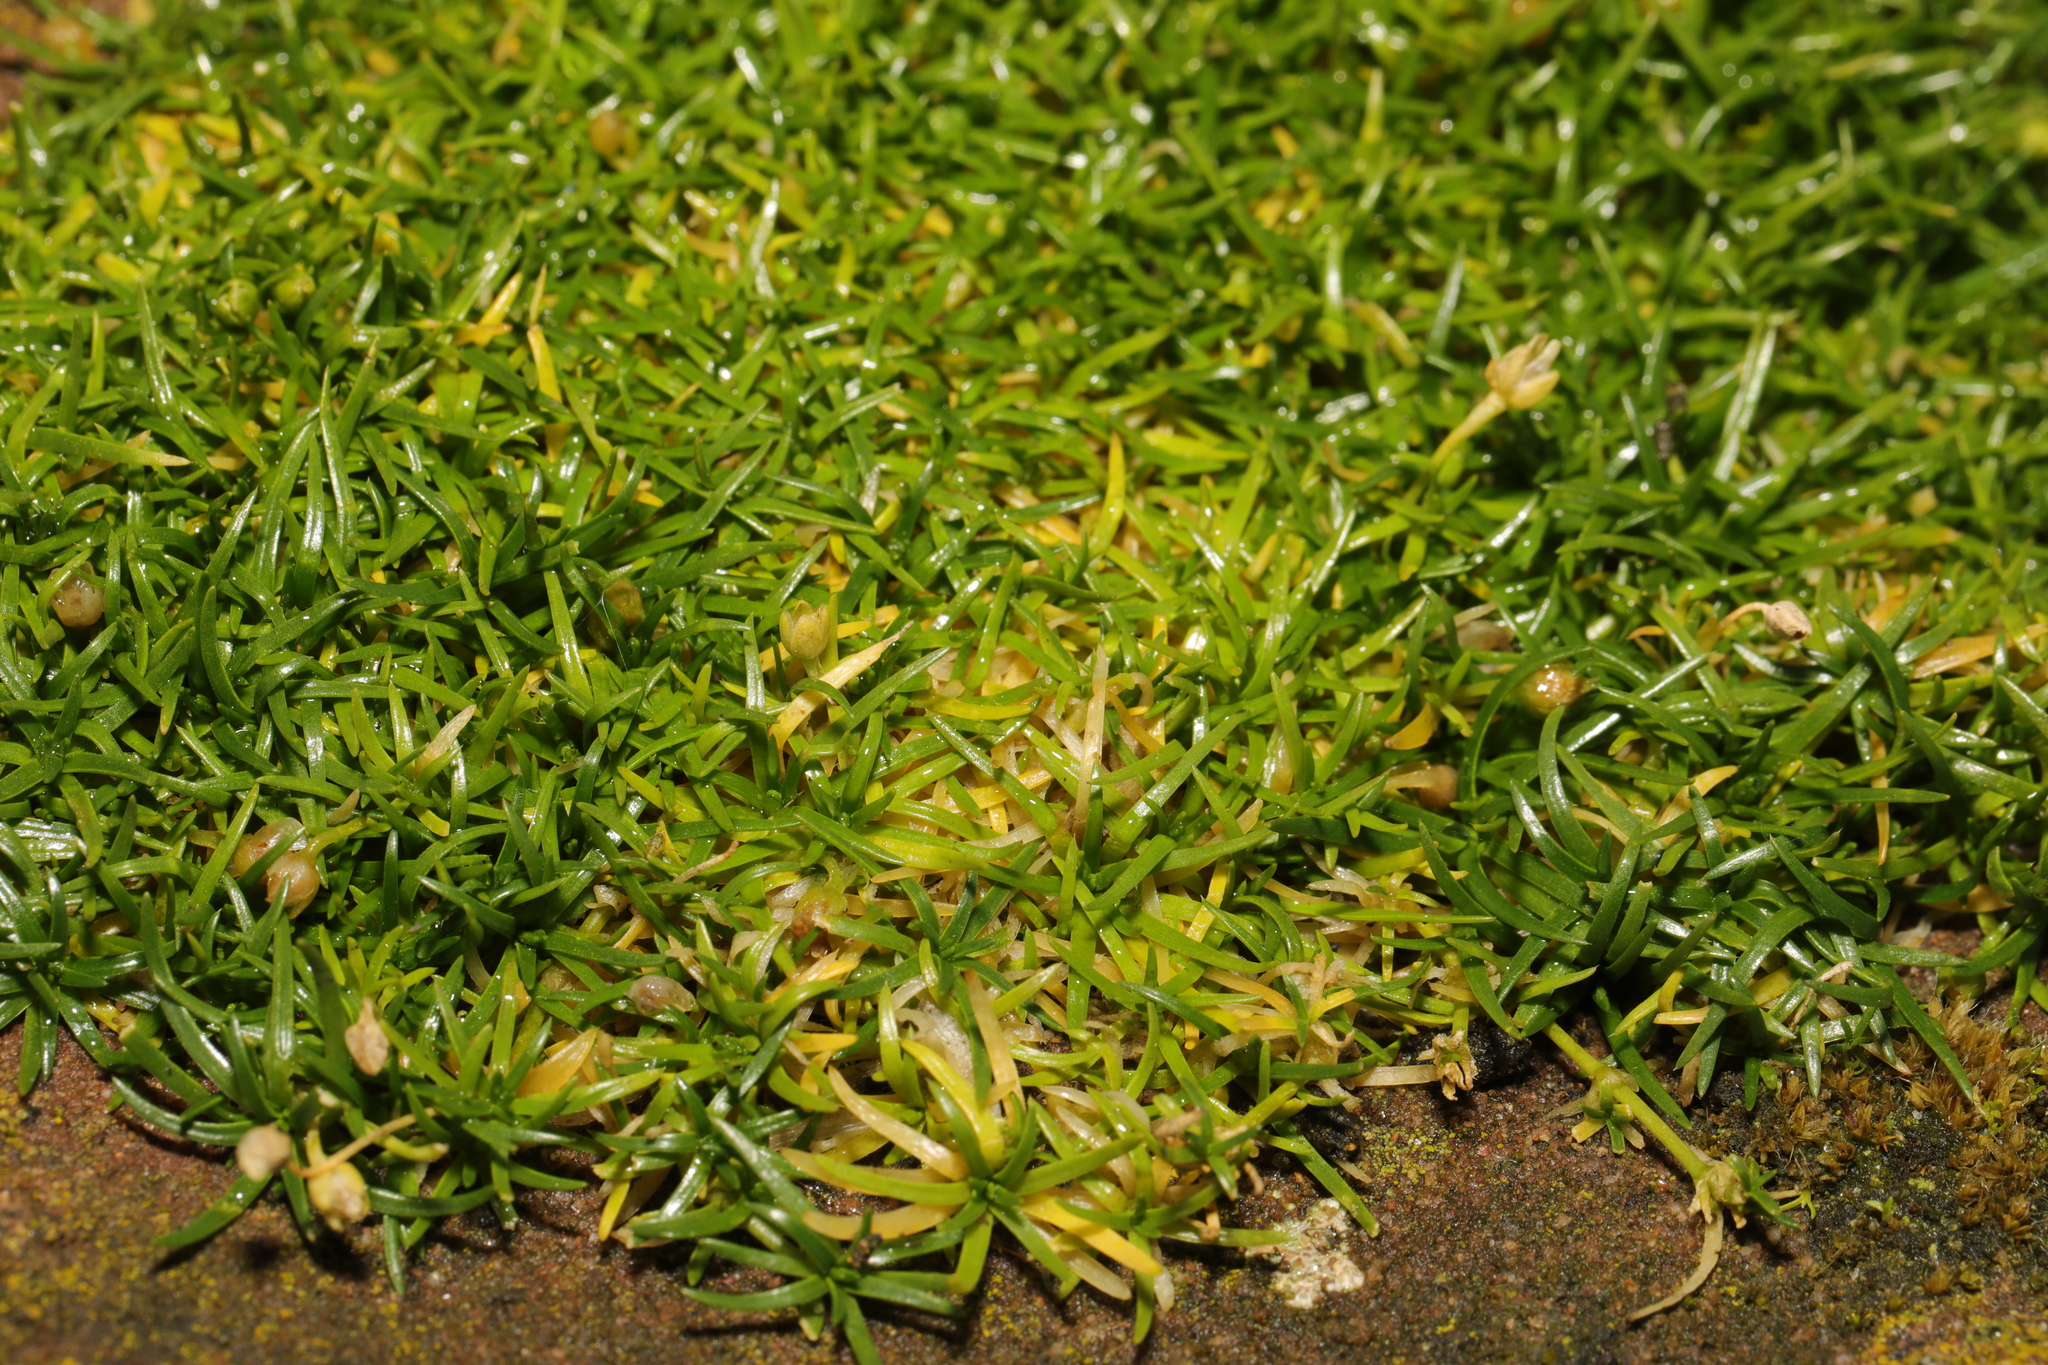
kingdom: Plantae
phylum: Tracheophyta
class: Magnoliopsida
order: Caryophyllales
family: Caryophyllaceae
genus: Sagina
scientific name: Sagina procumbens
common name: Procumbent pearlwort
